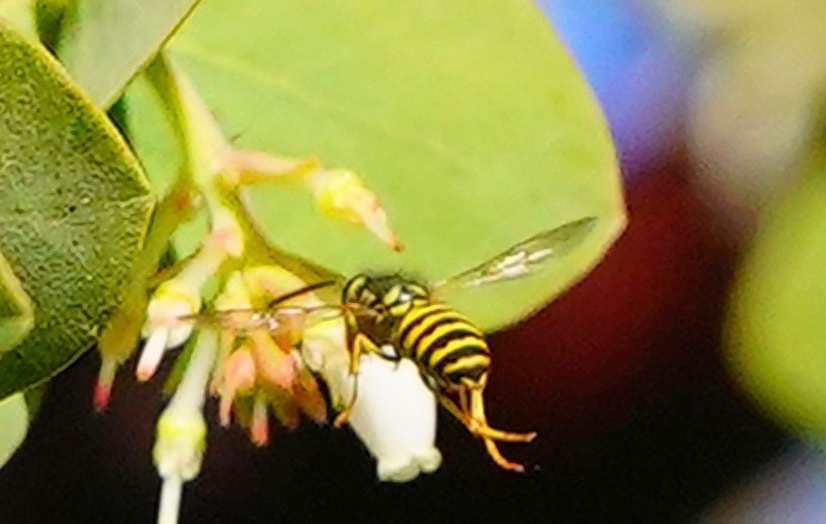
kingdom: Animalia
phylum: Arthropoda
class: Insecta
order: Hymenoptera
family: Vespidae
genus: Vespula
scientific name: Vespula alascensis
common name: Alaska yellowjacket
